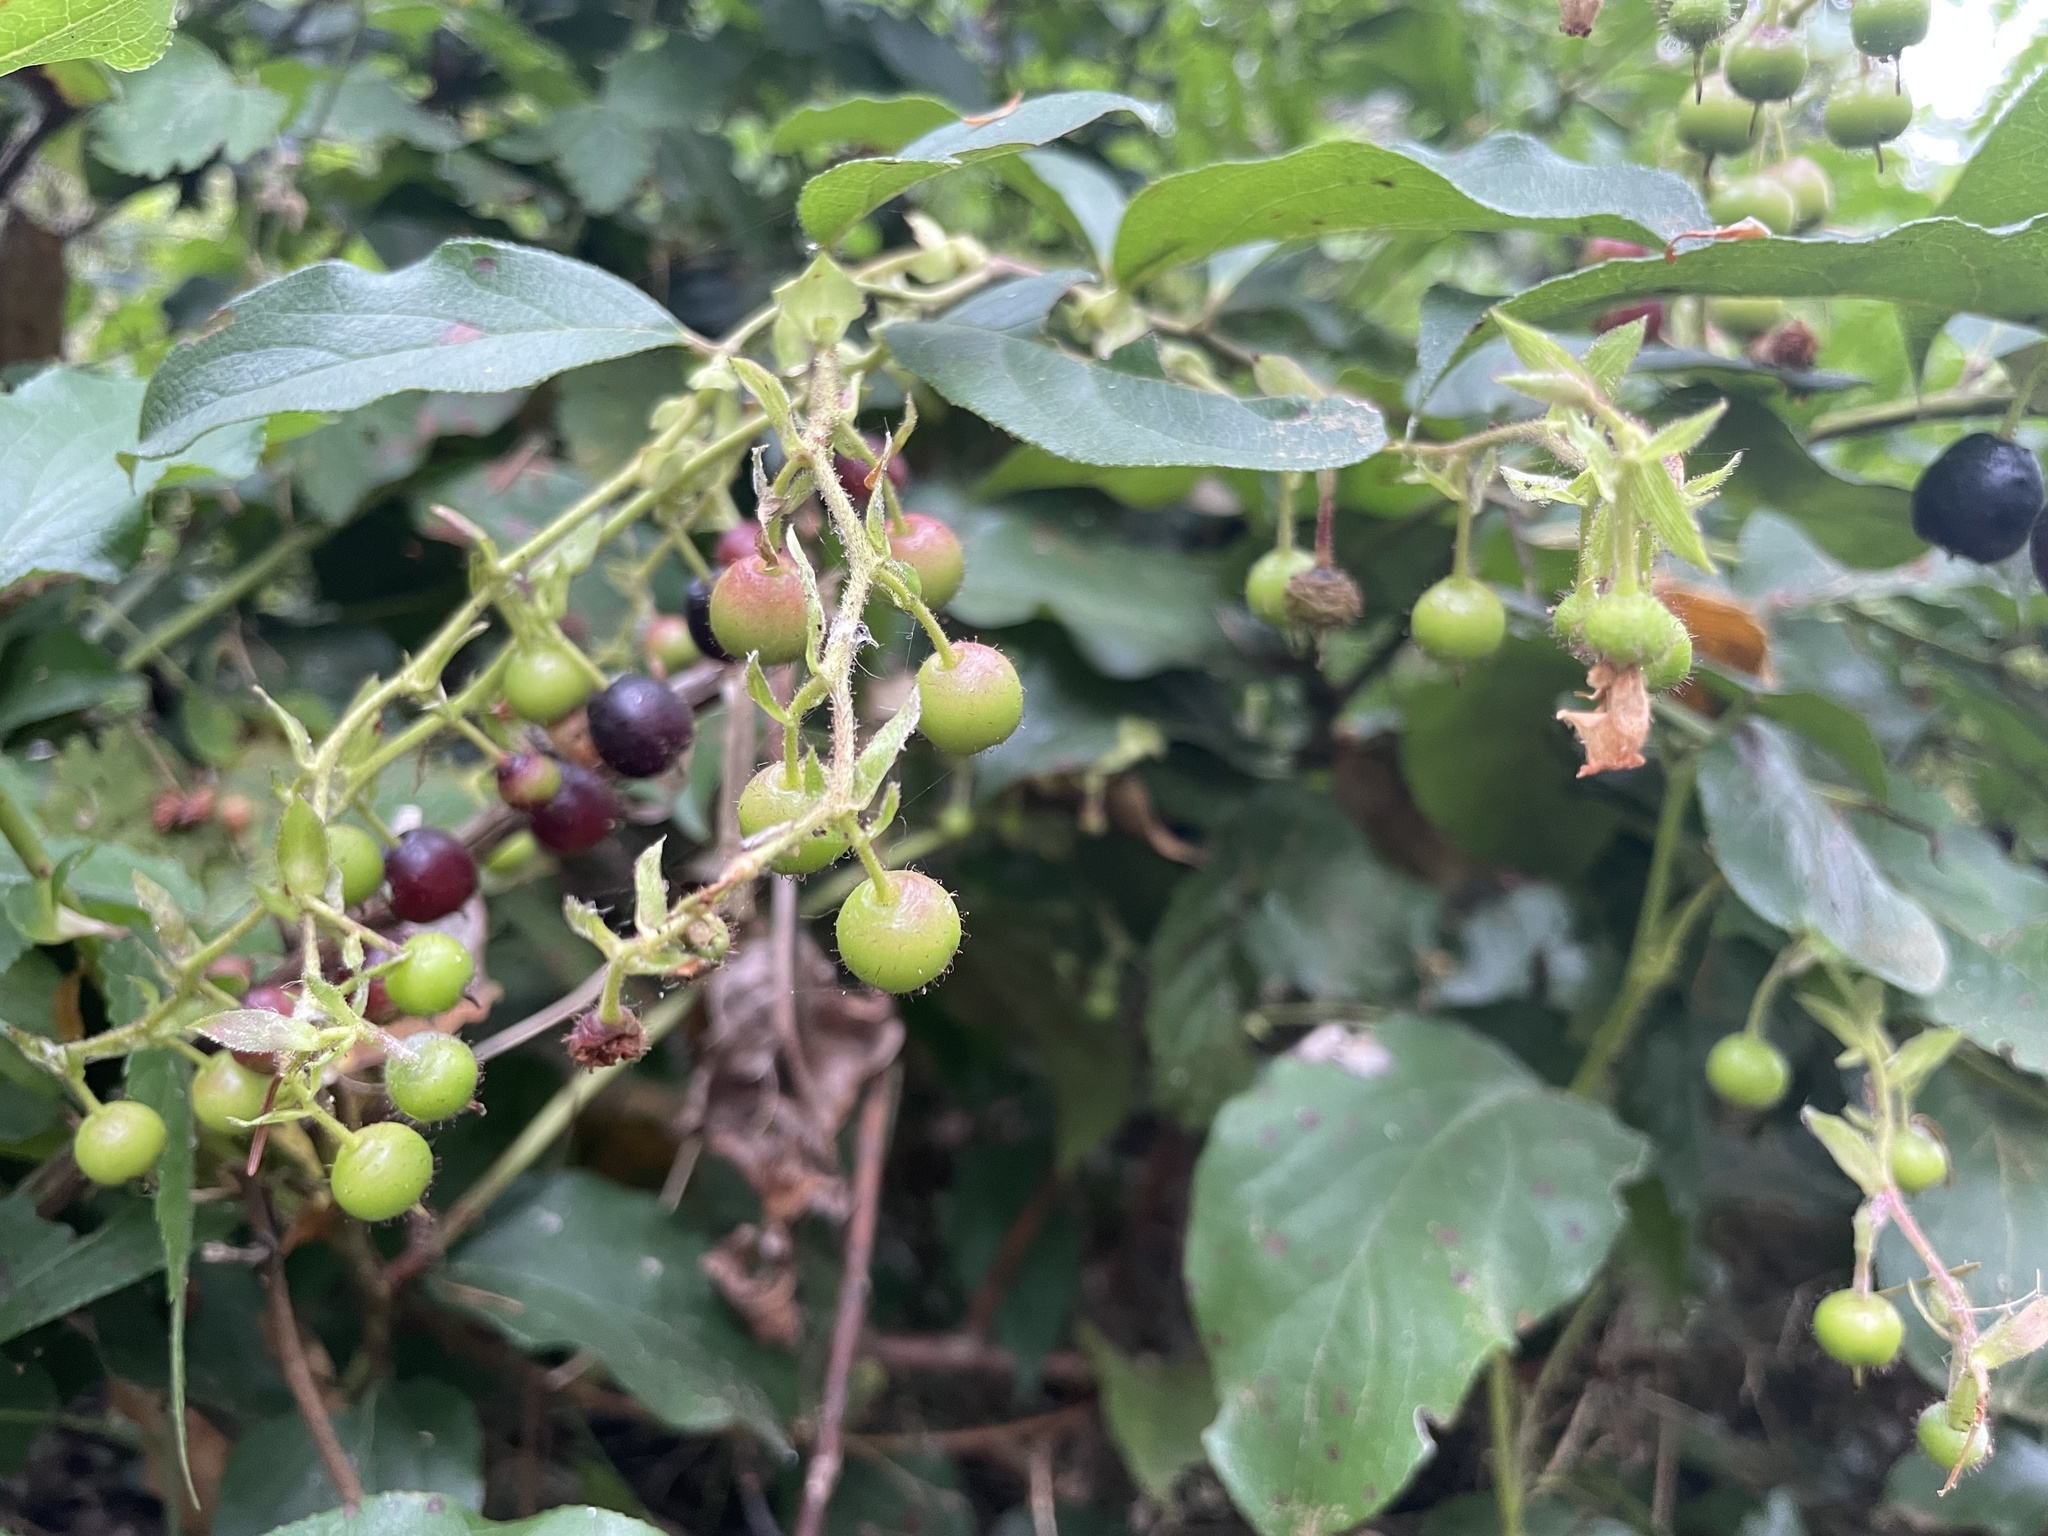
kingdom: Plantae
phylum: Tracheophyta
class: Magnoliopsida
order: Ericales
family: Ericaceae
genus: Gaultheria
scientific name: Gaultheria shallon
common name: Shallon
